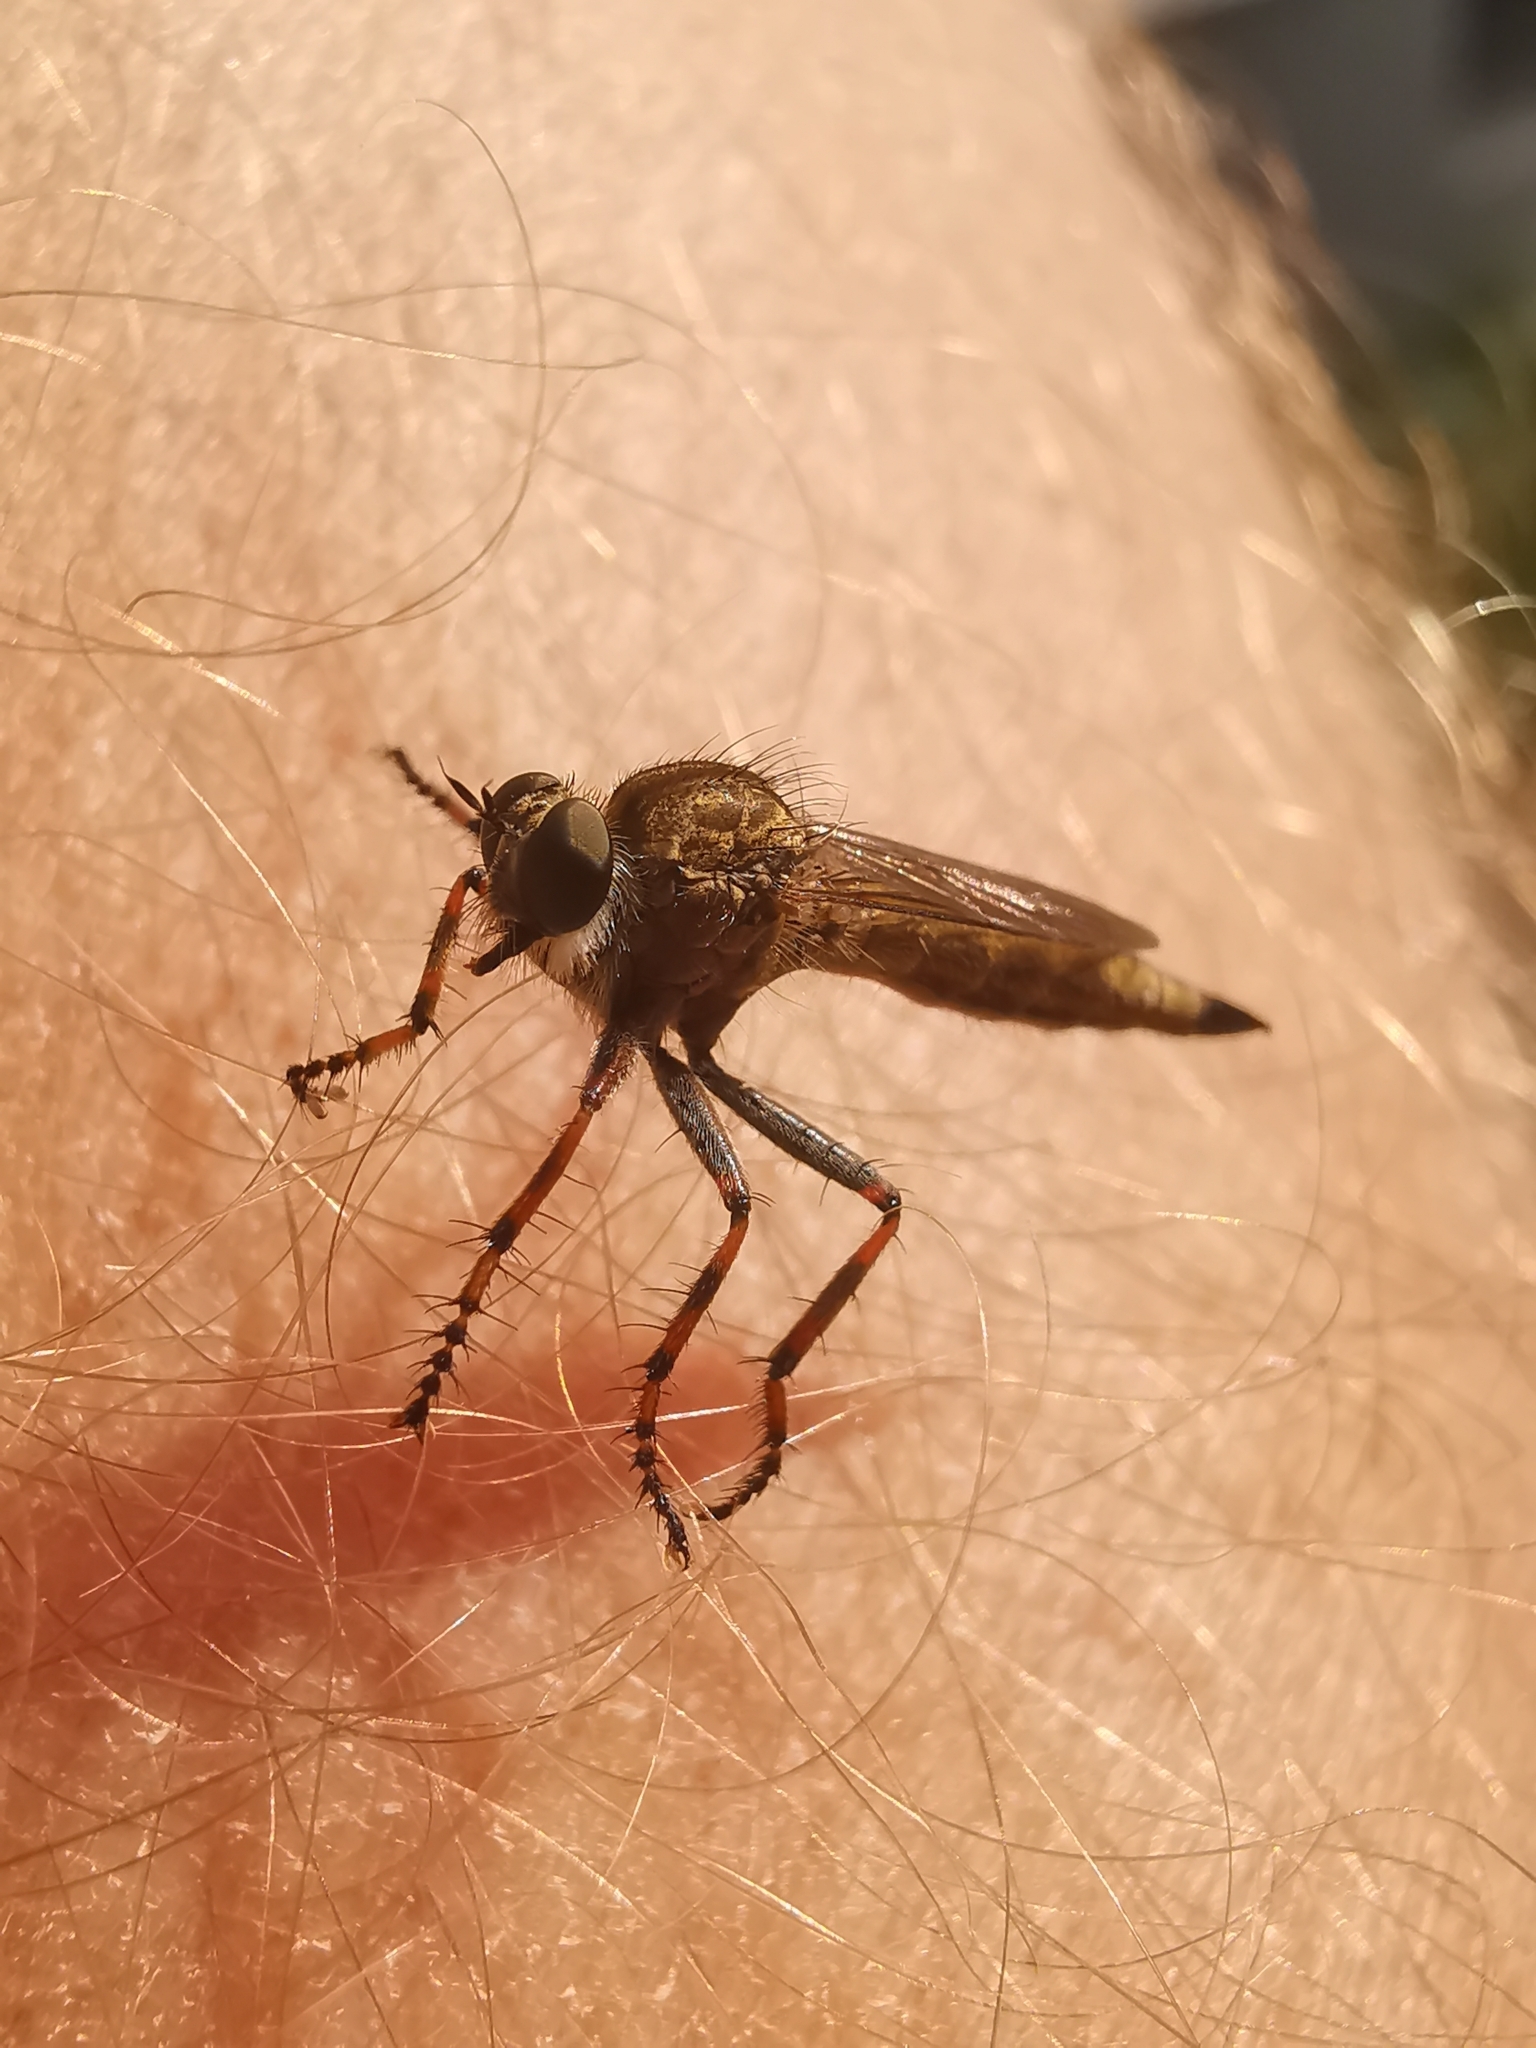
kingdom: Animalia
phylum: Arthropoda
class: Insecta
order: Diptera
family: Asilidae
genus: Epitriptus
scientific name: Epitriptus cingulatus
